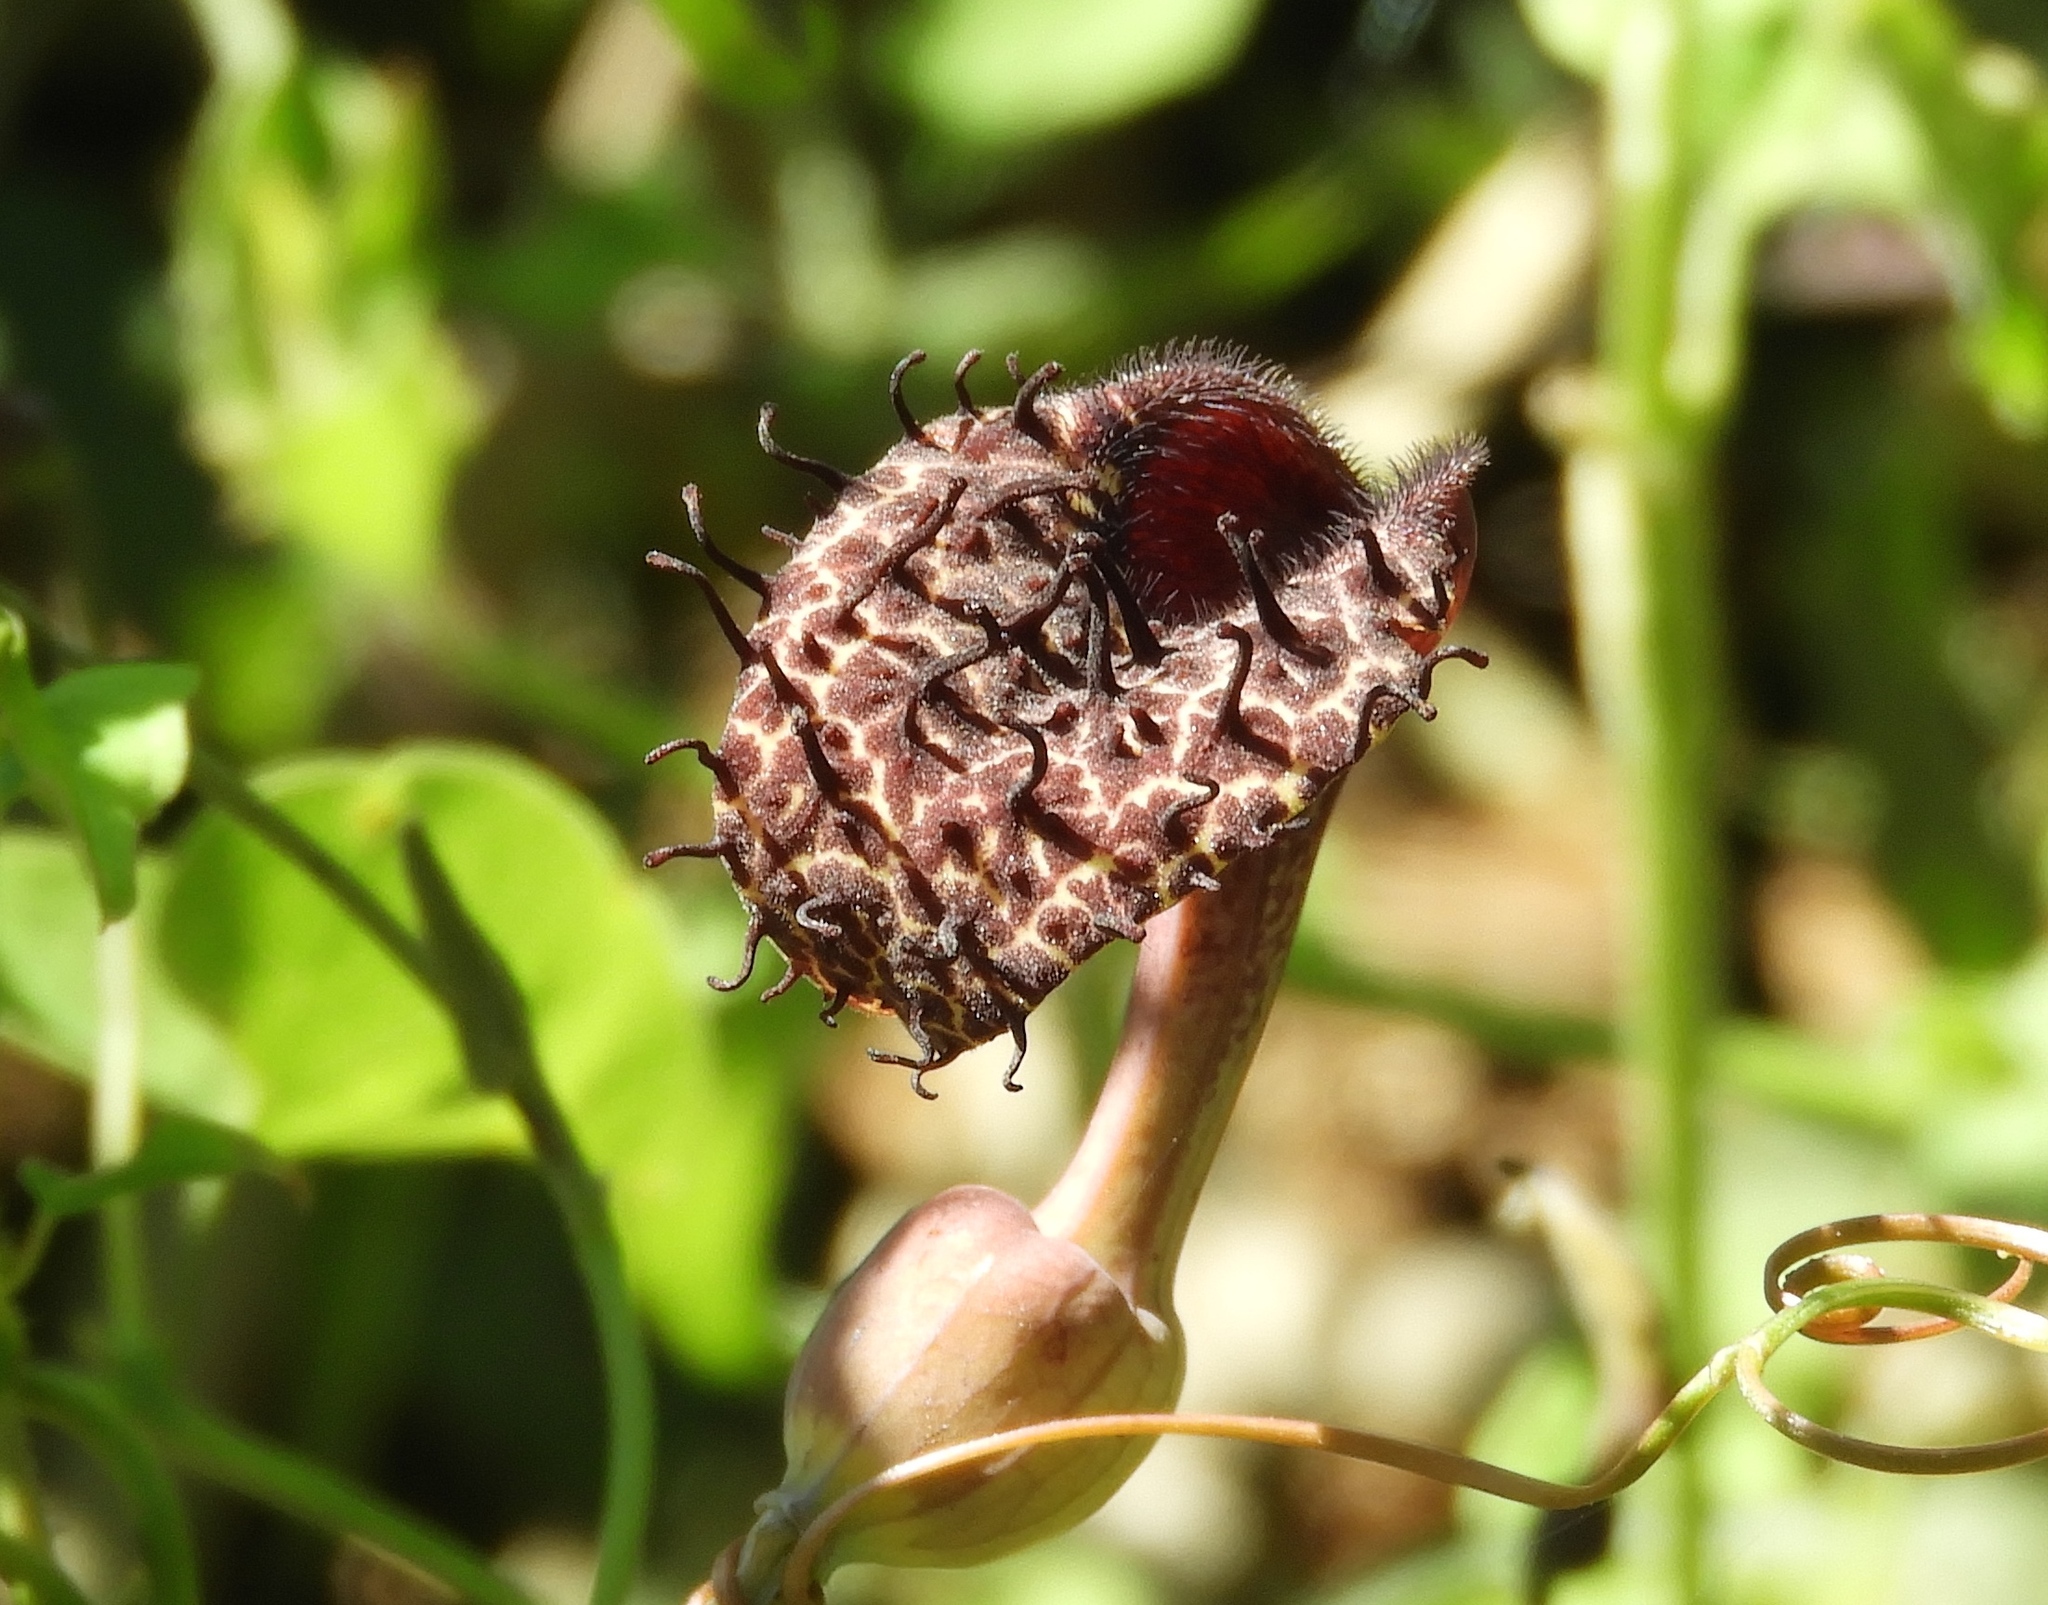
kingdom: Plantae
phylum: Tracheophyta
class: Magnoliopsida
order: Piperales
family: Aristolochiaceae
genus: Aristolochia
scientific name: Aristolochia taliscana
